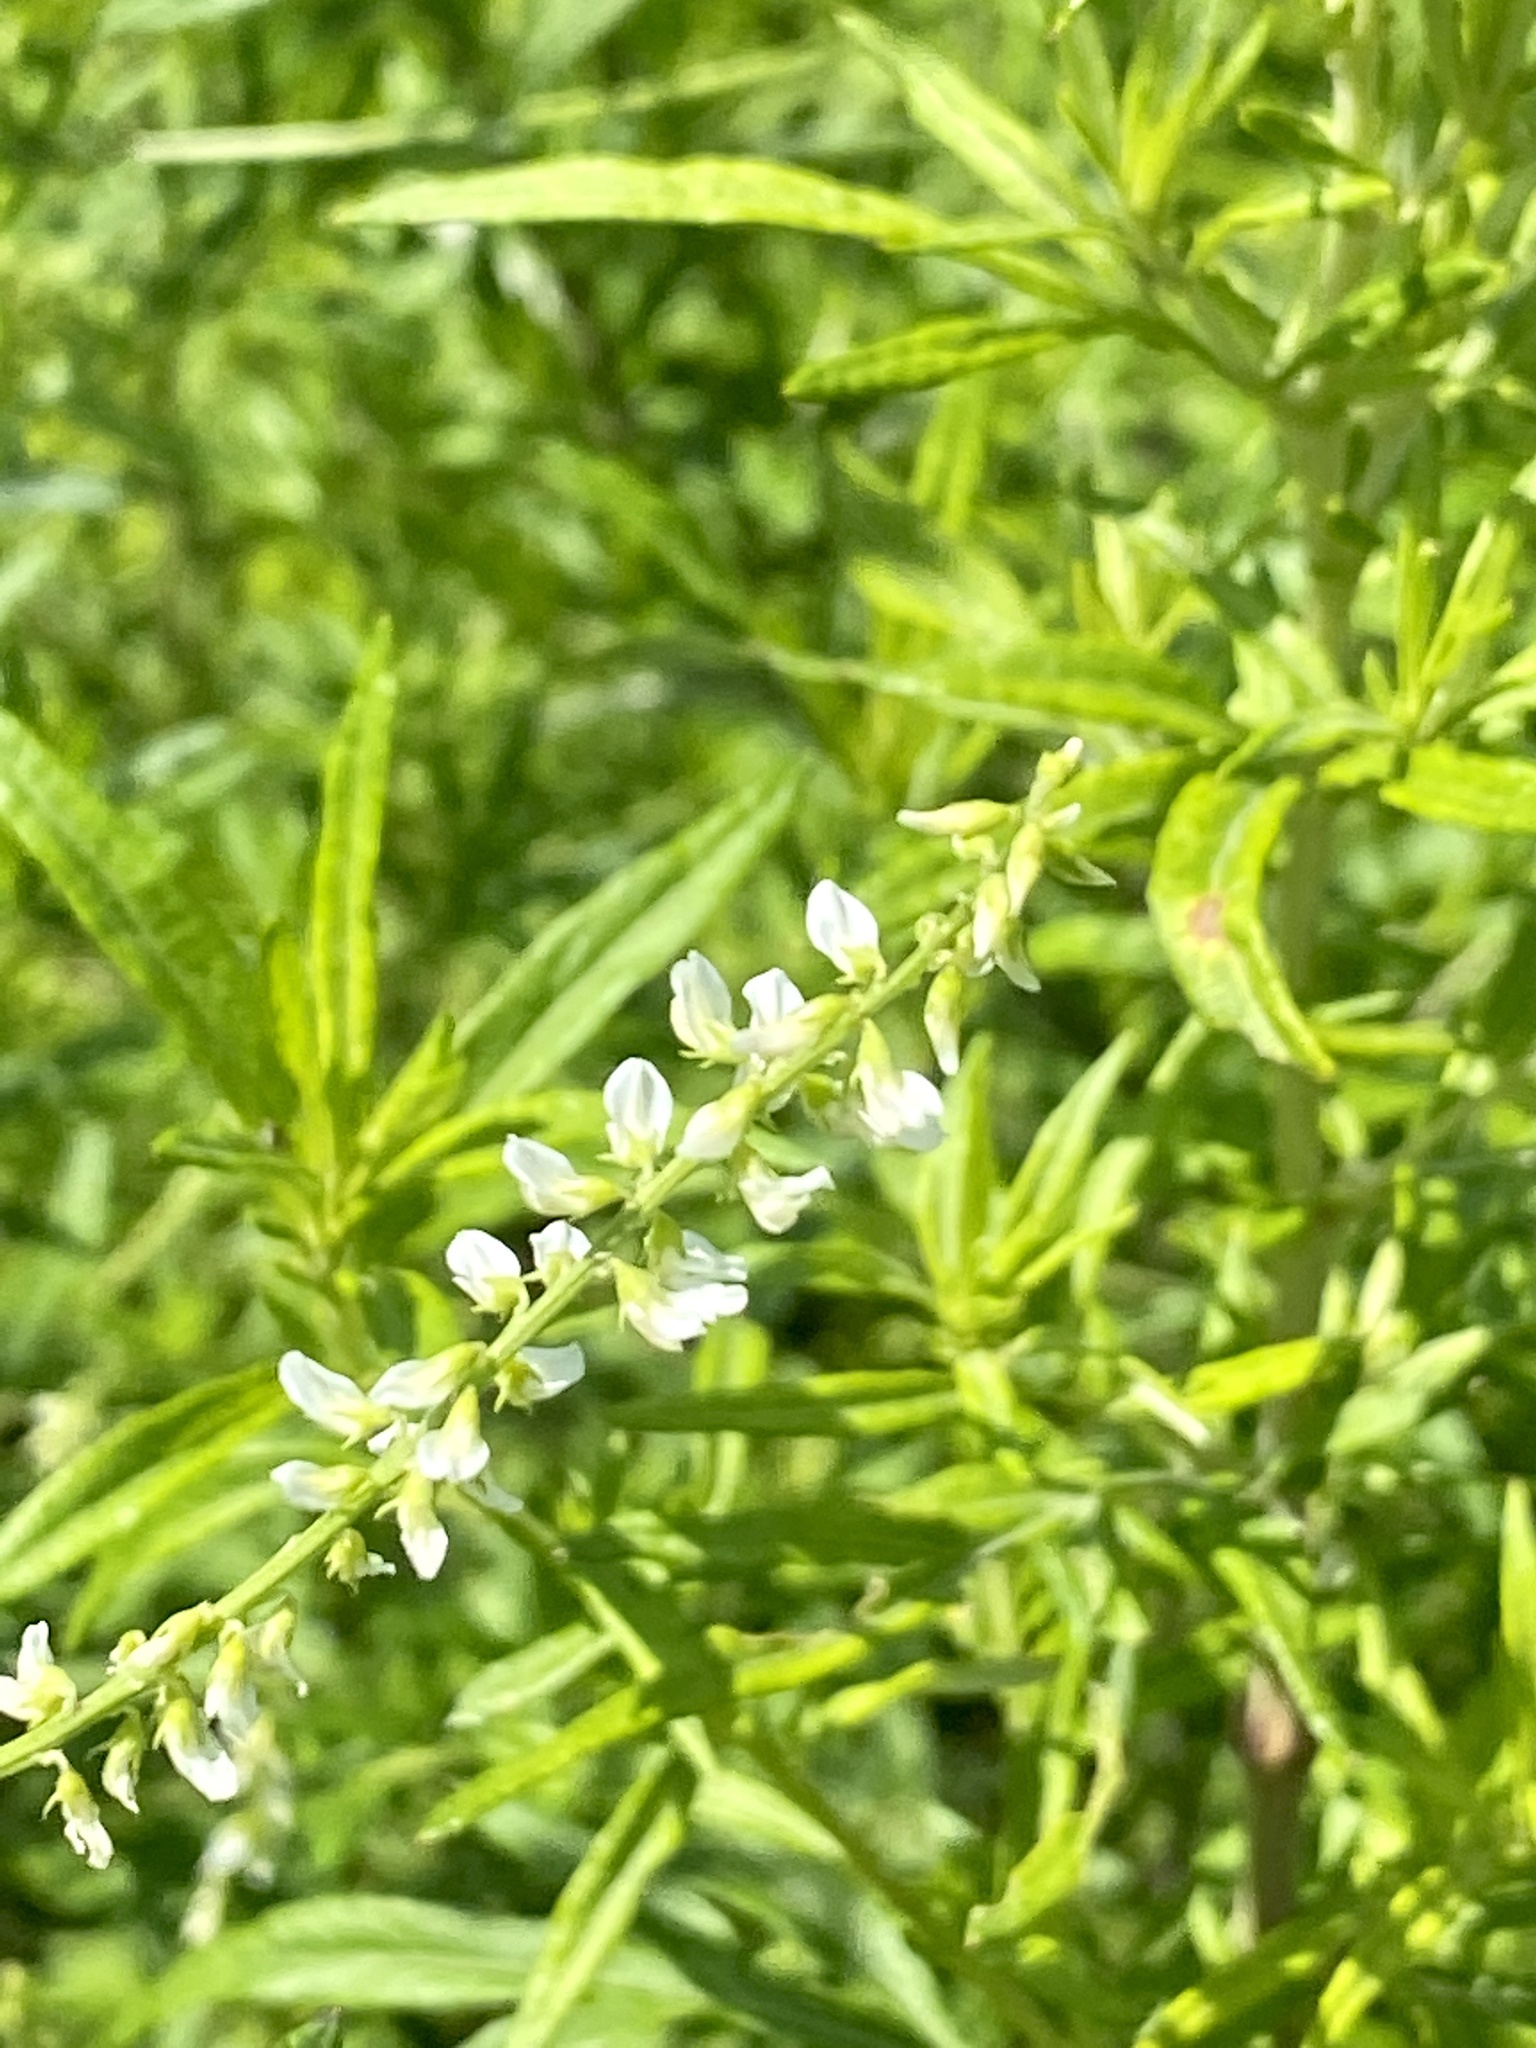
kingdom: Plantae
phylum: Tracheophyta
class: Magnoliopsida
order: Fabales
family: Fabaceae
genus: Melilotus
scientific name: Melilotus albus
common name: White melilot
